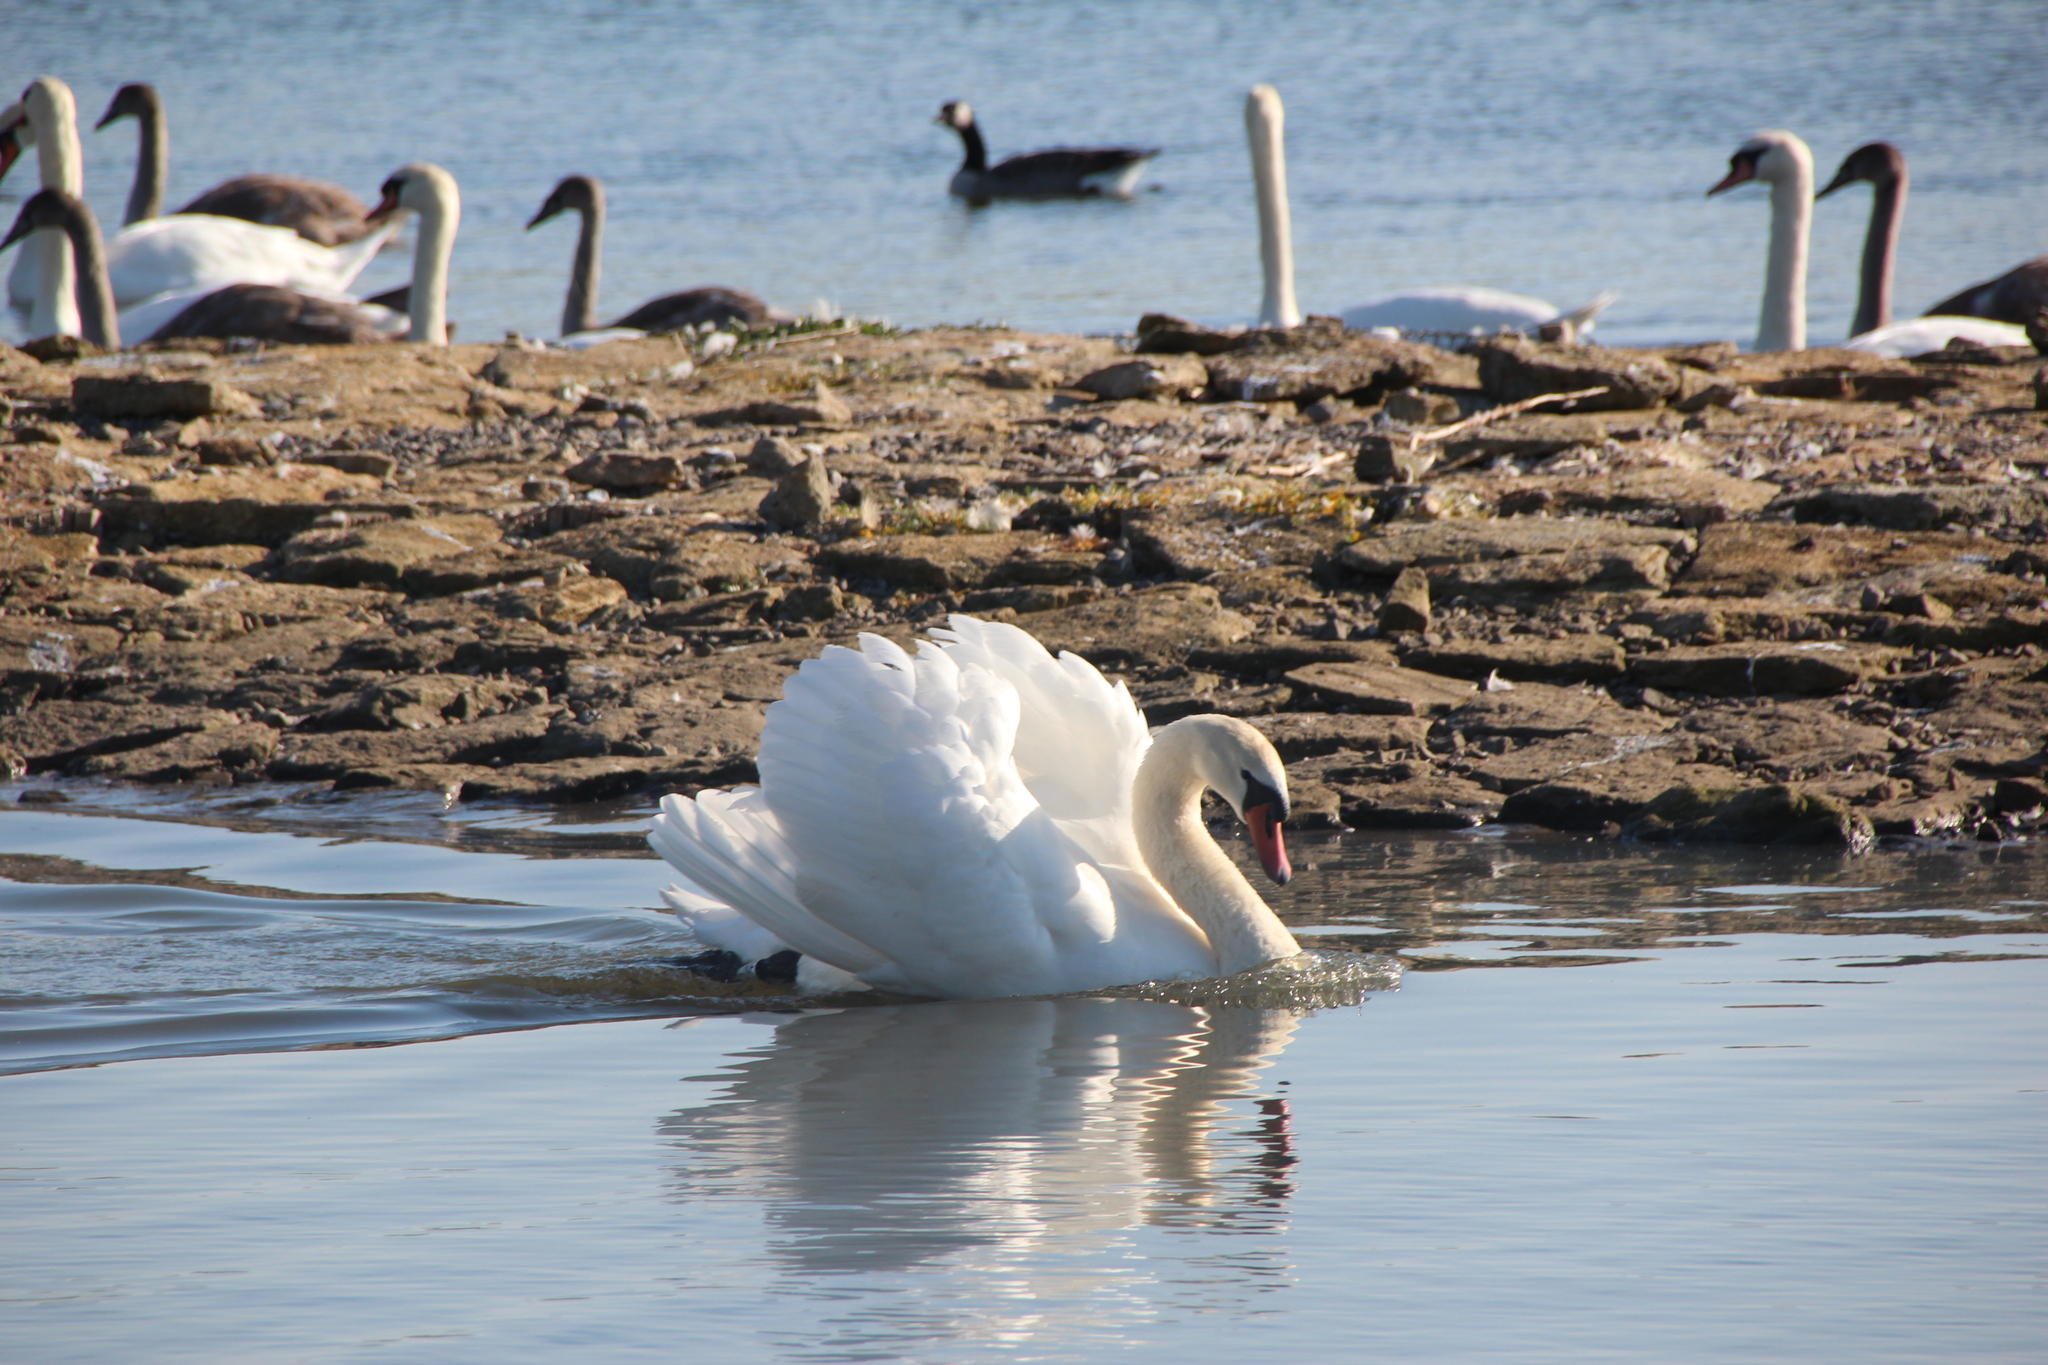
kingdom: Animalia
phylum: Chordata
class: Aves
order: Anseriformes
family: Anatidae
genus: Cygnus
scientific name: Cygnus olor
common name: Mute swan
